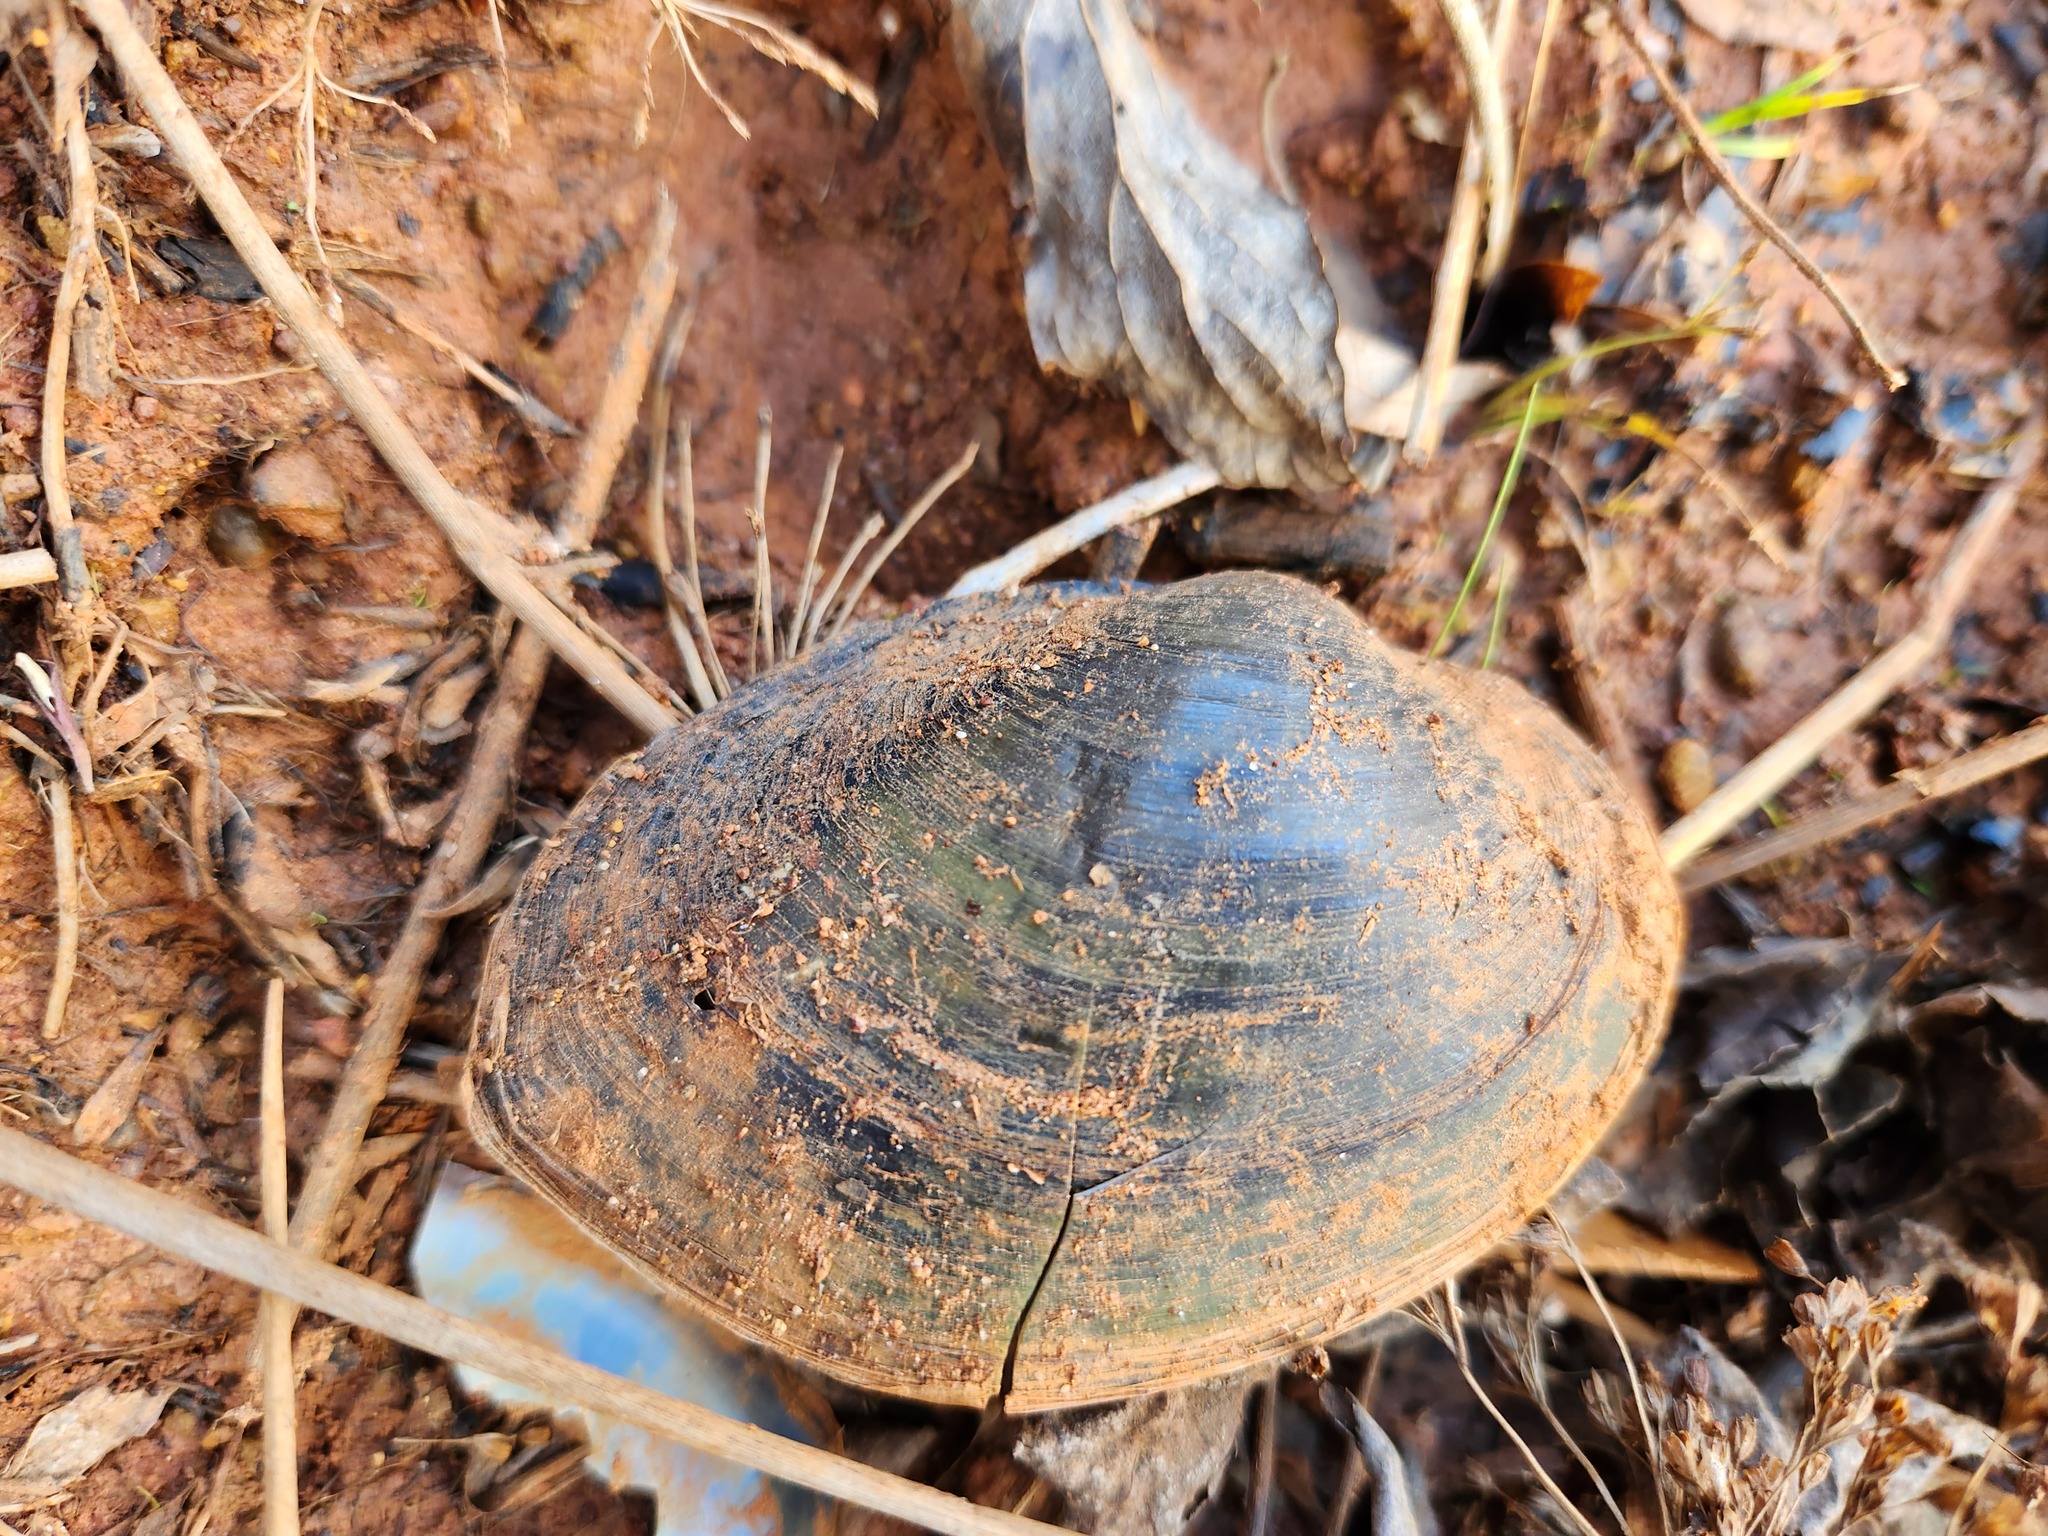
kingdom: Animalia
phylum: Mollusca
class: Bivalvia
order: Unionida
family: Unionidae
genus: Pyganodon
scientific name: Pyganodon grandis
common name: Giant floater
